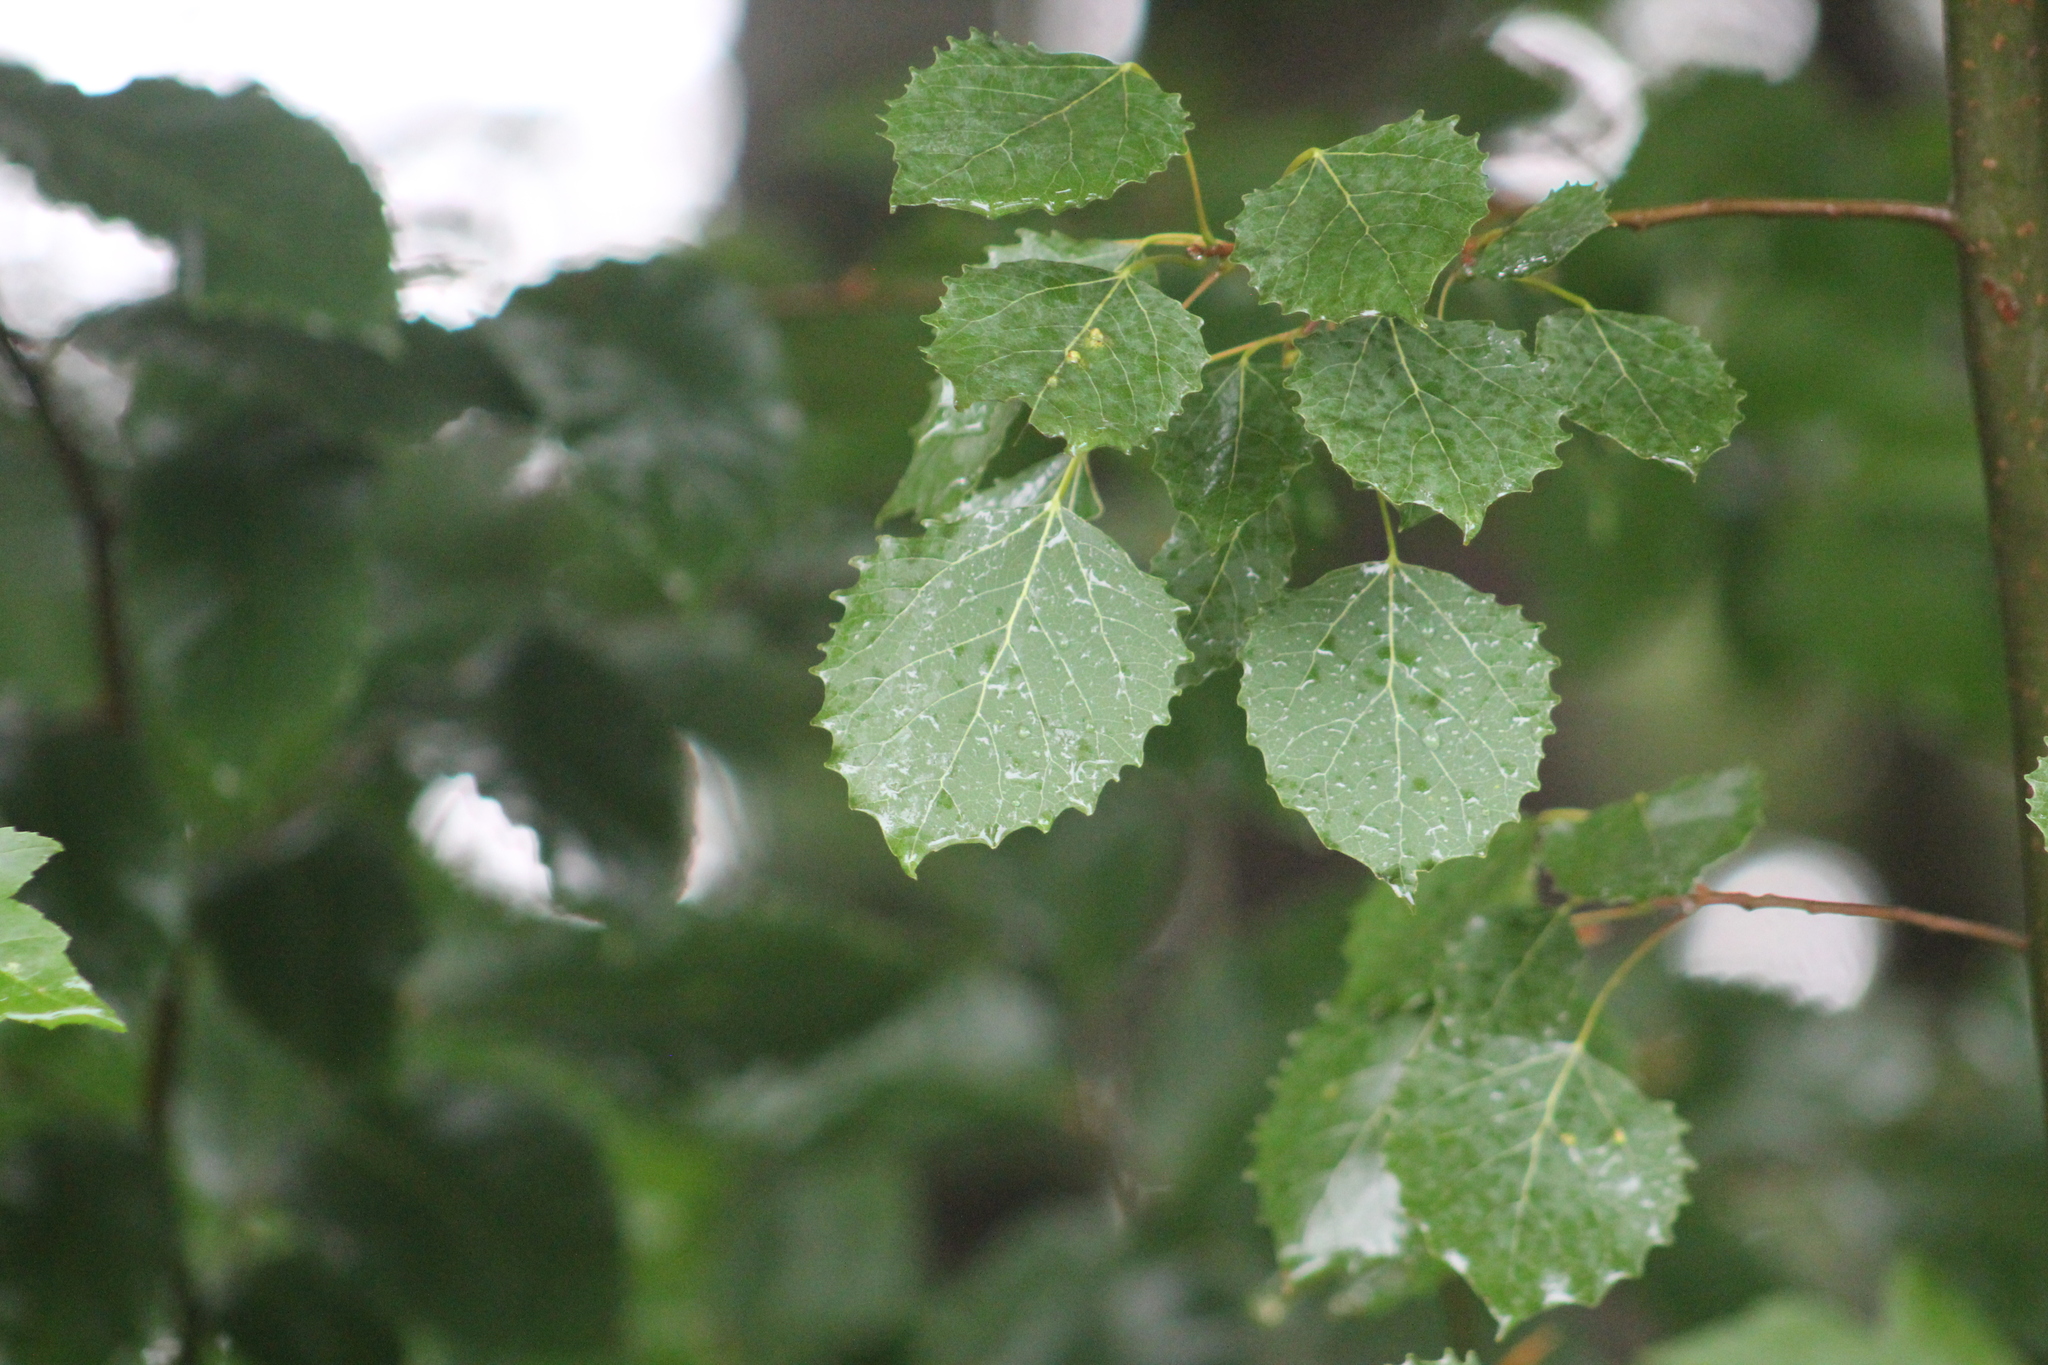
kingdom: Plantae
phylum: Tracheophyta
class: Magnoliopsida
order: Malpighiales
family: Salicaceae
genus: Populus
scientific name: Populus grandidentata
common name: Bigtooth aspen
